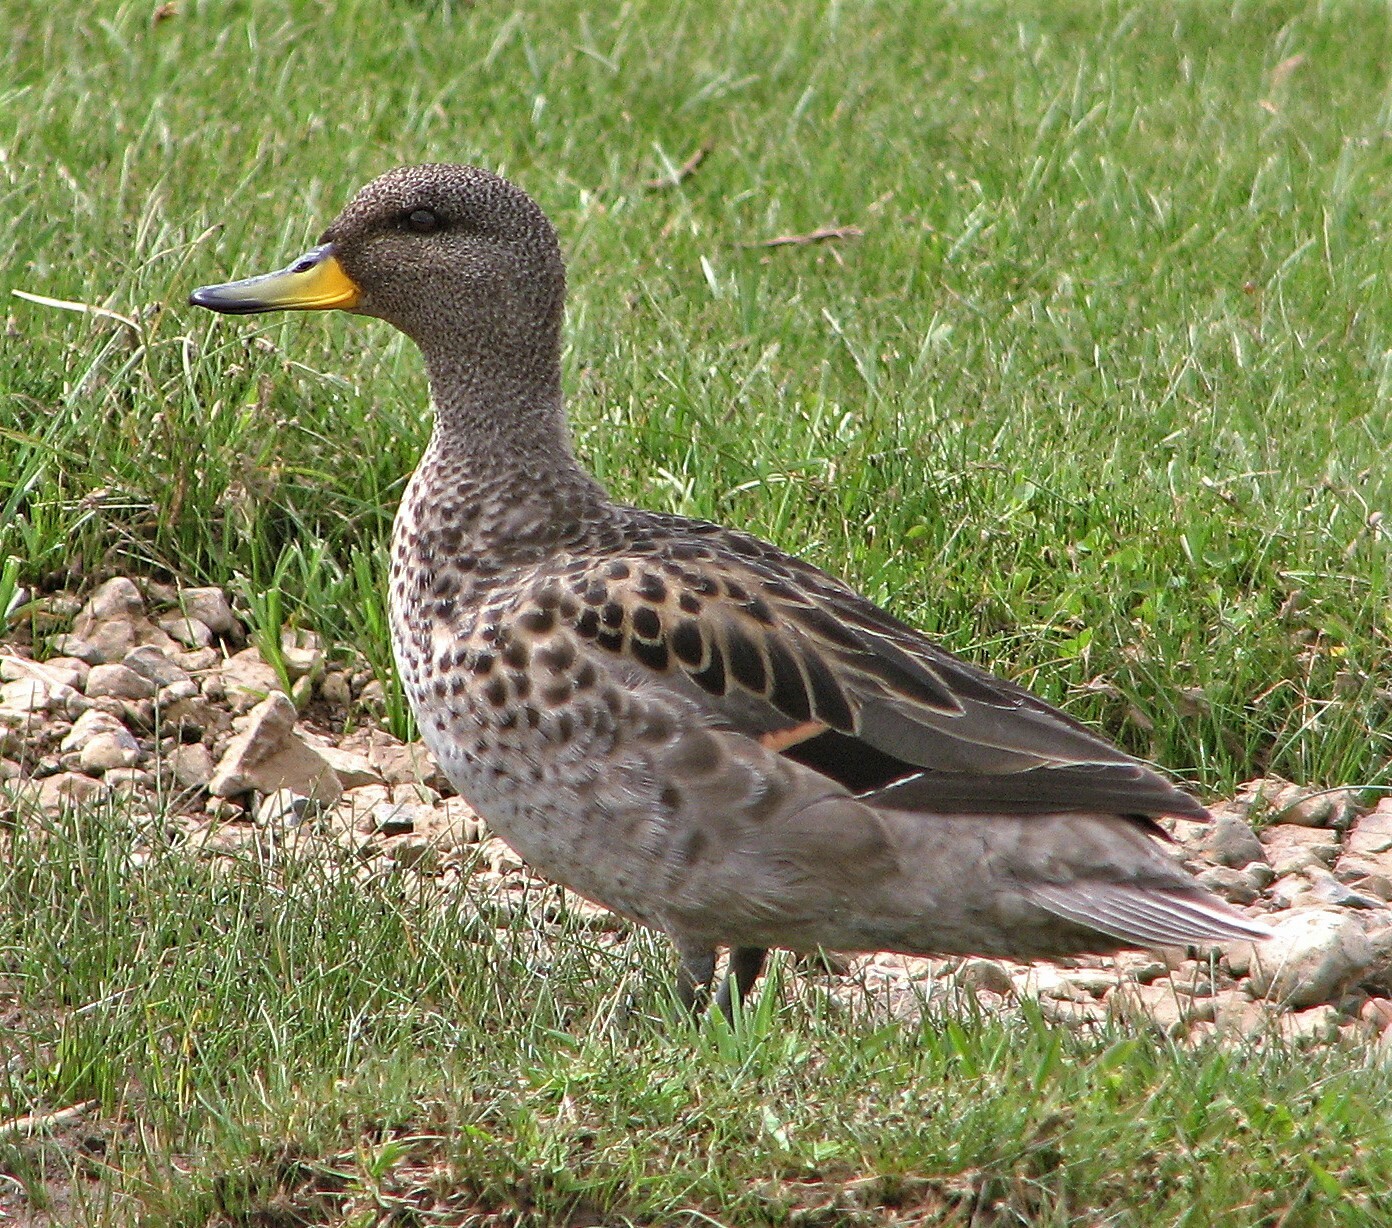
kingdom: Animalia
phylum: Chordata
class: Aves
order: Anseriformes
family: Anatidae
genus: Anas
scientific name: Anas flavirostris
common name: Yellow-billed teal
